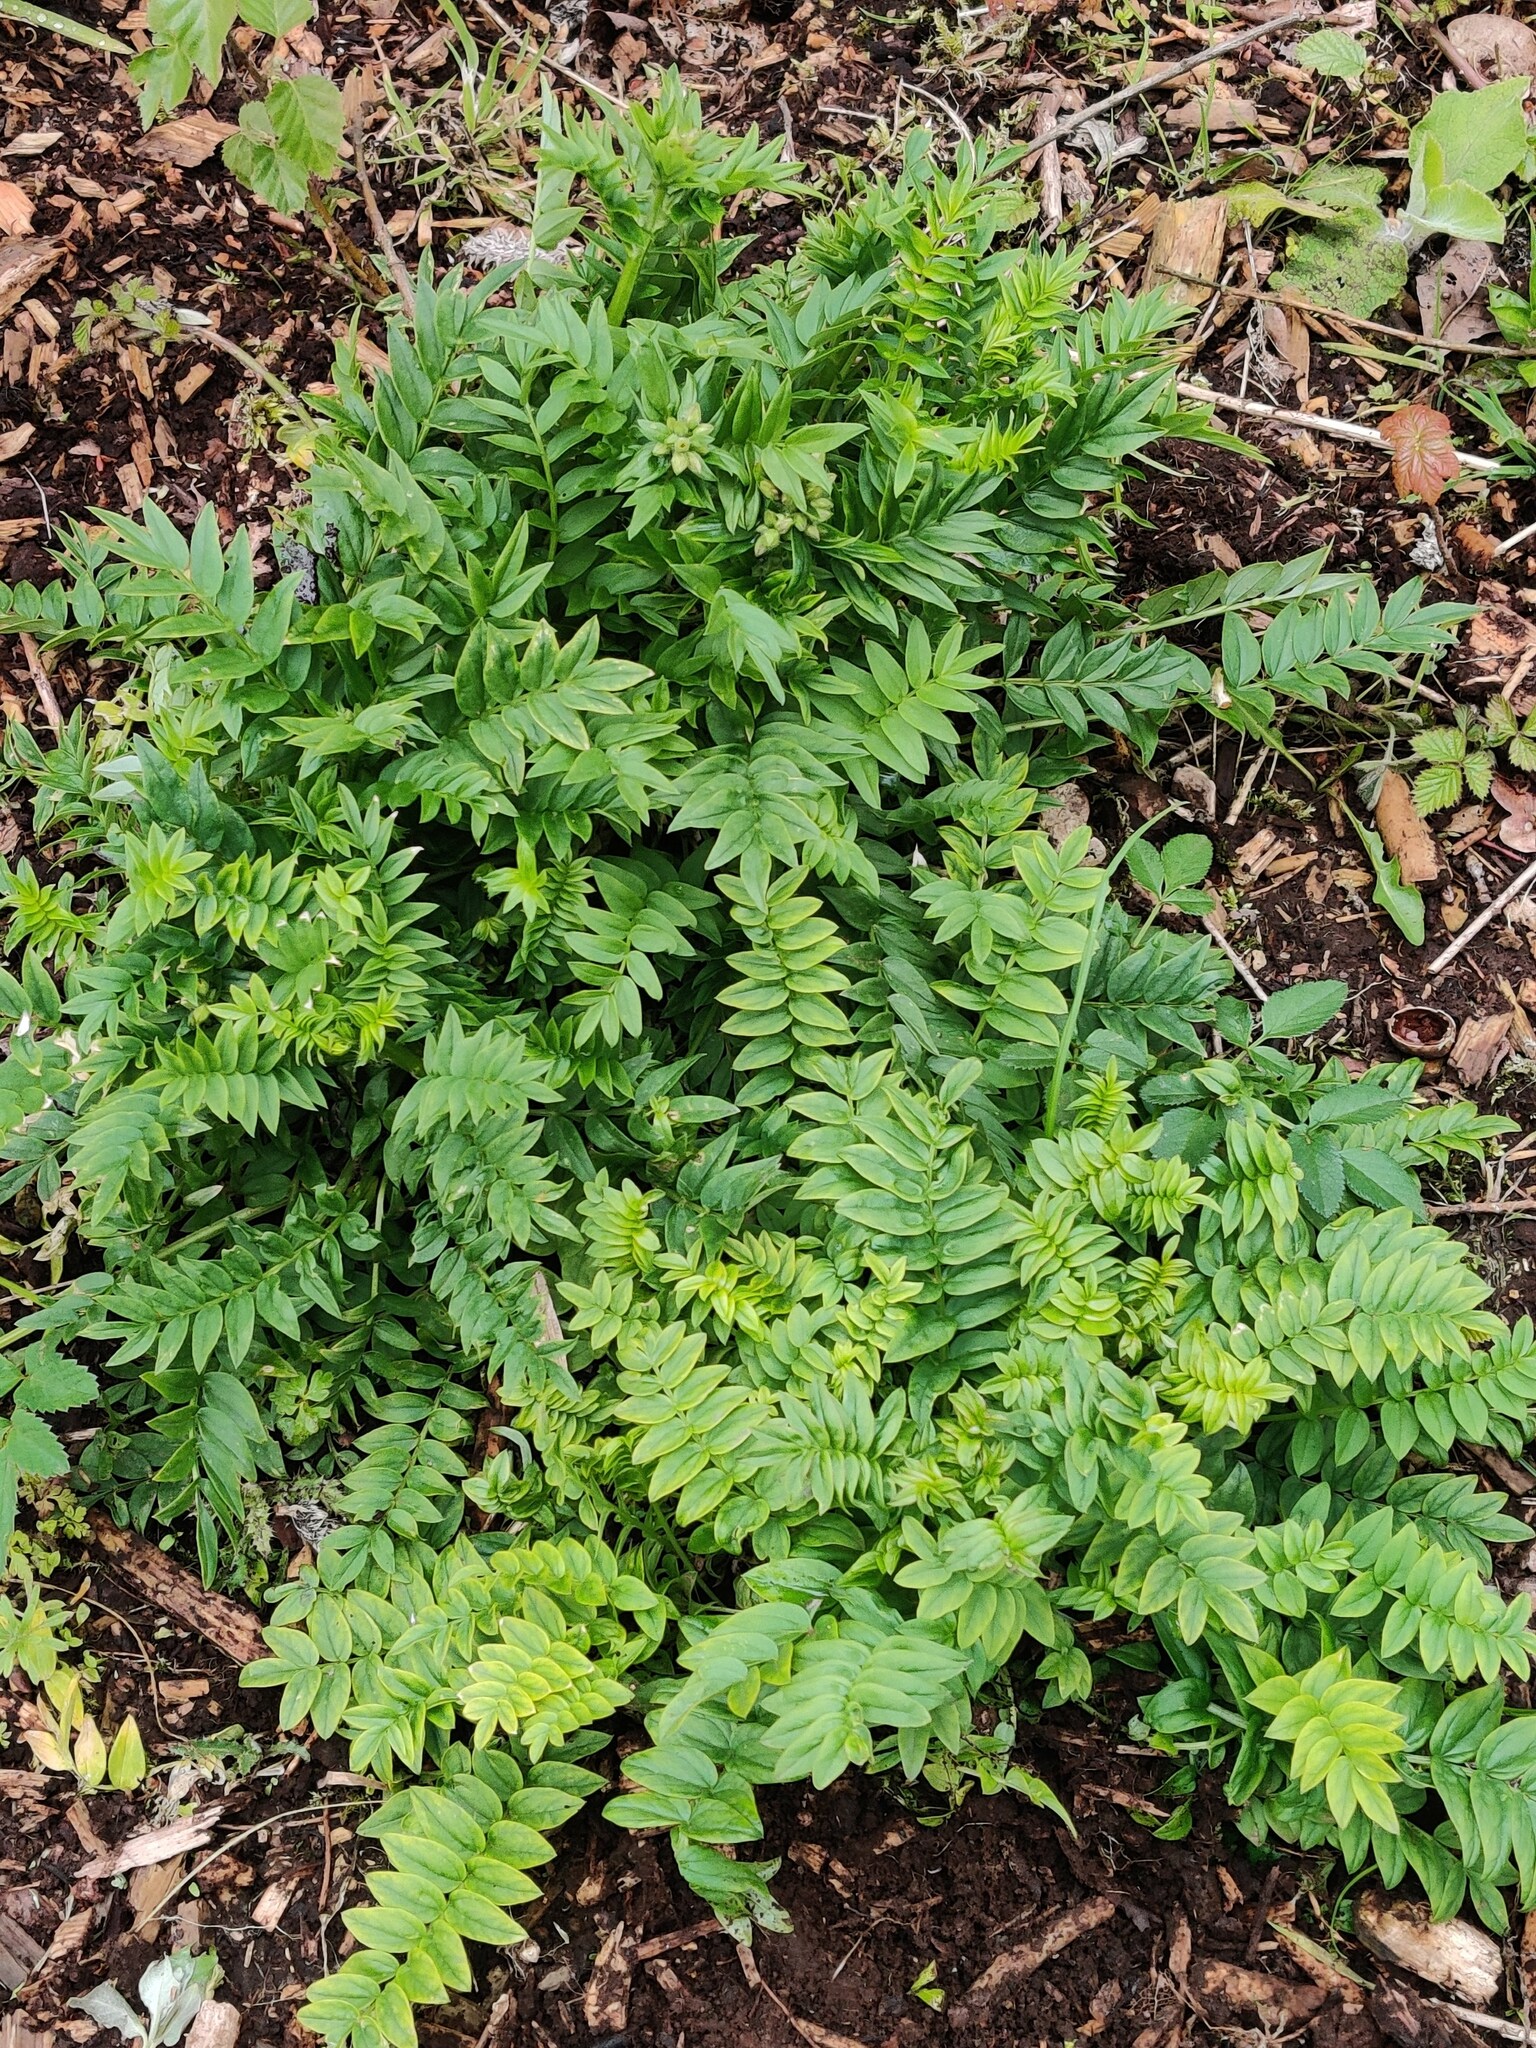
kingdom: Plantae
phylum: Tracheophyta
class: Magnoliopsida
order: Ericales
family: Polemoniaceae
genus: Polemonium
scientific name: Polemonium caeruleum
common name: Jacob's-ladder
